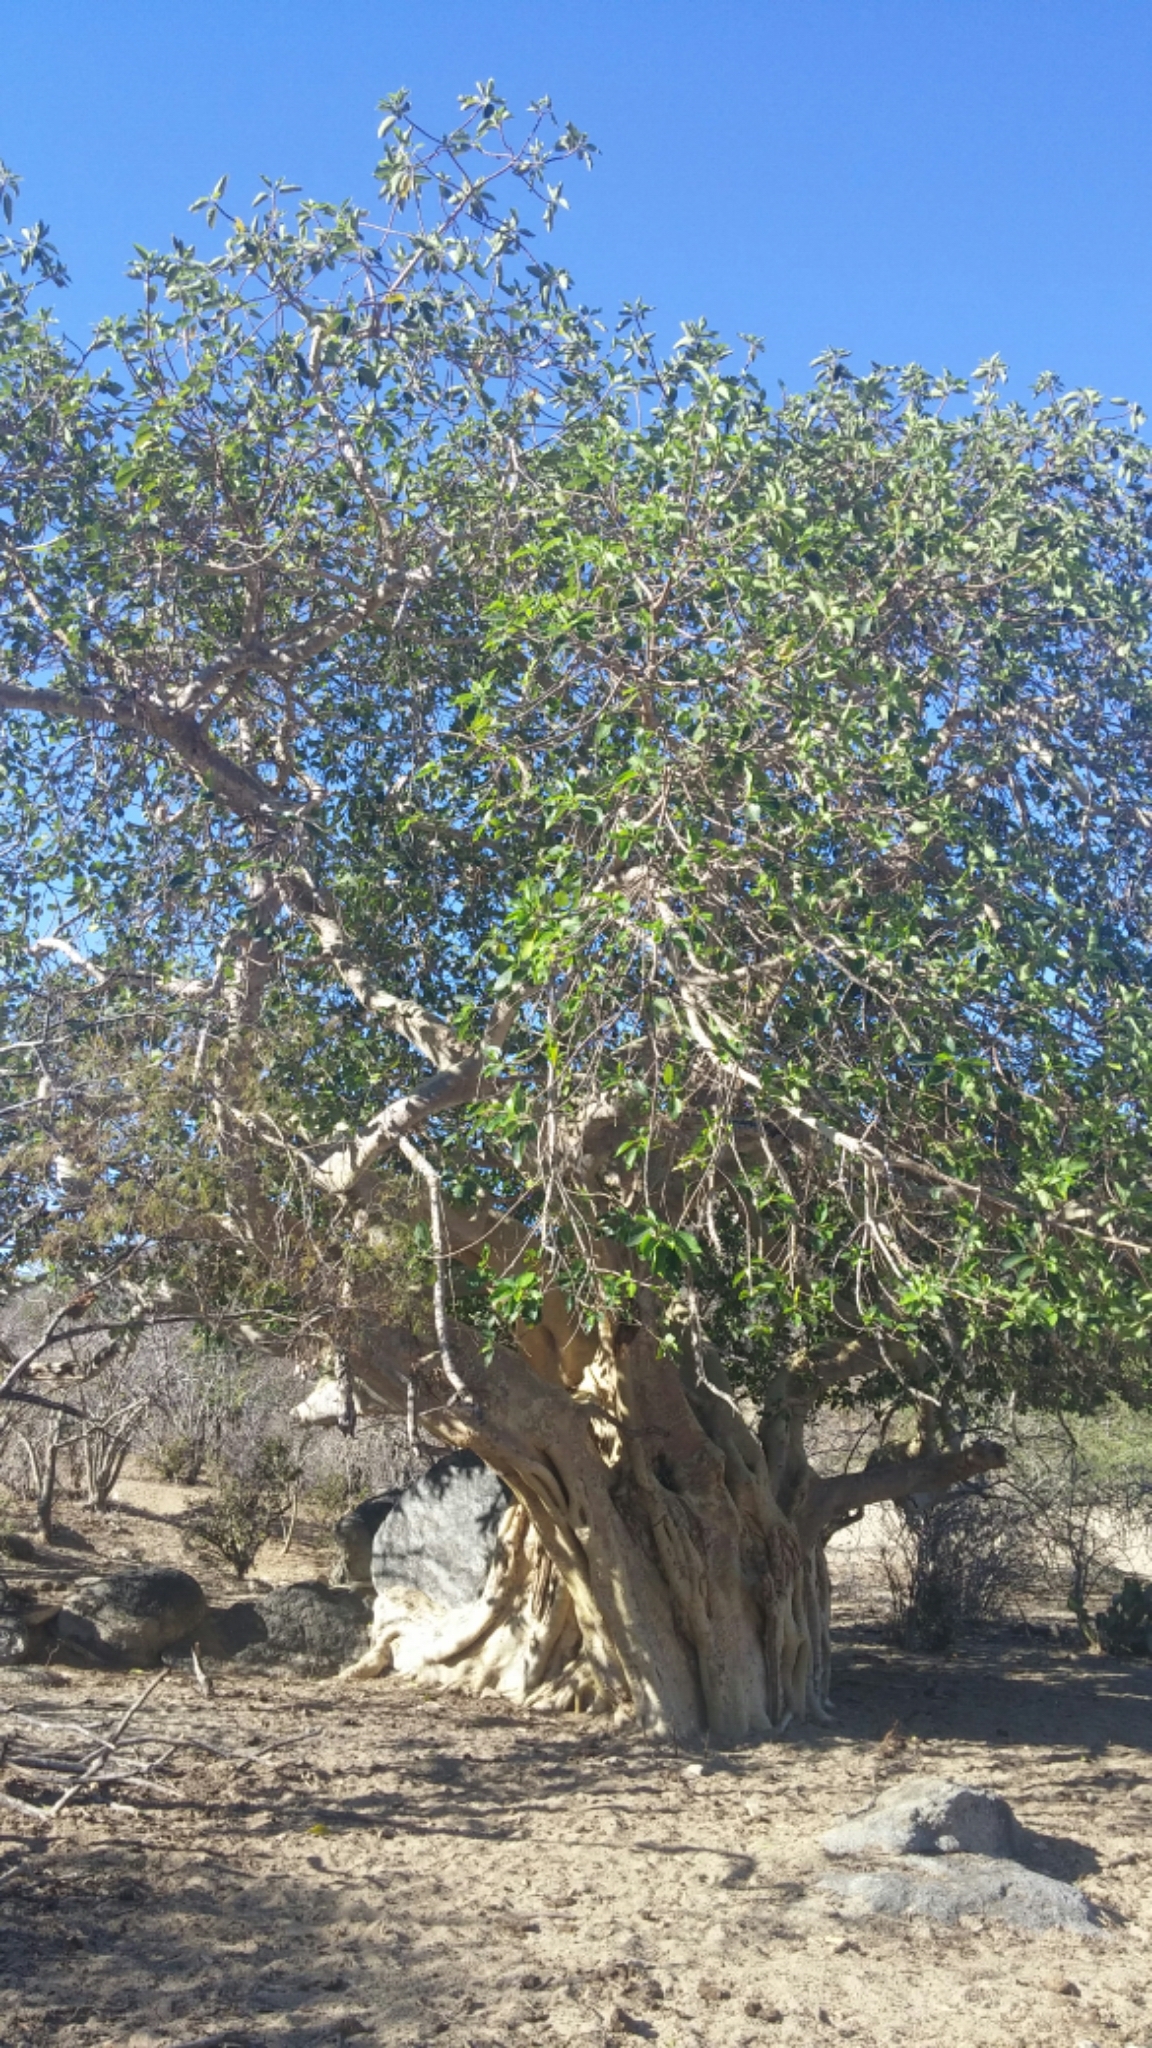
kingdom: Plantae
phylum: Tracheophyta
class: Magnoliopsida
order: Rosales
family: Moraceae
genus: Ficus
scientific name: Ficus petiolaris
